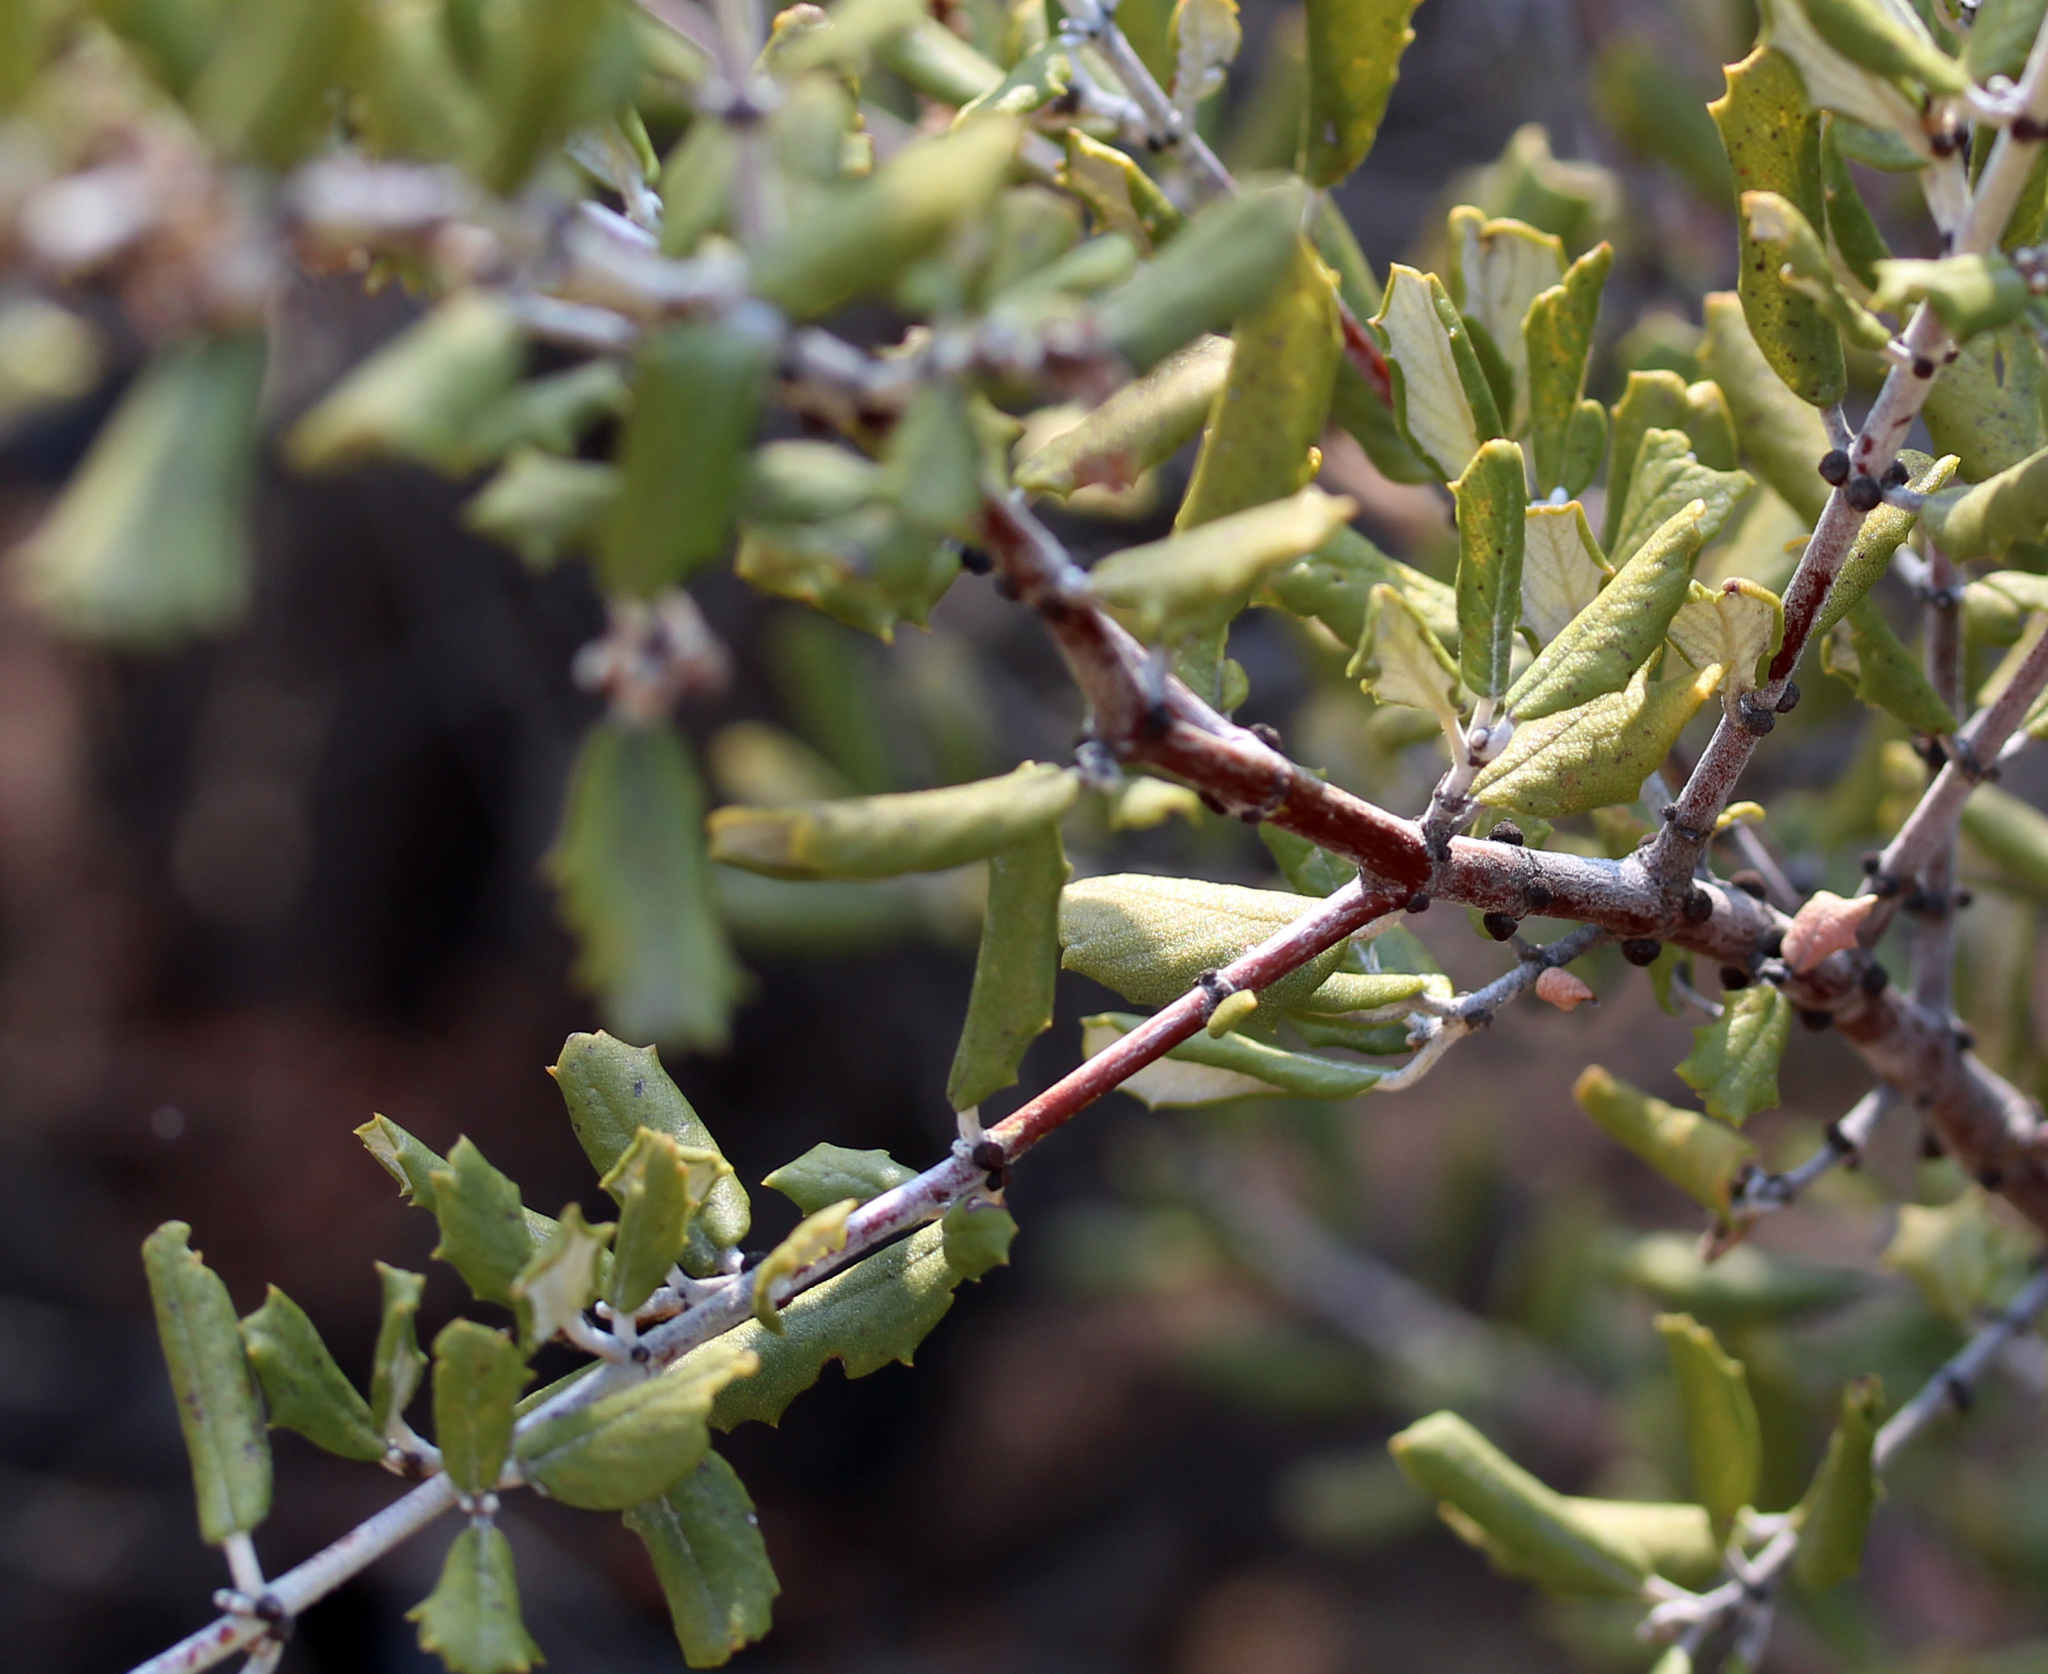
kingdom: Plantae
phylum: Tracheophyta
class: Magnoliopsida
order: Rosales
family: Rhamnaceae
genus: Ceanothus
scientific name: Ceanothus crassifolius
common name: Hoaryleaf ceanothus
